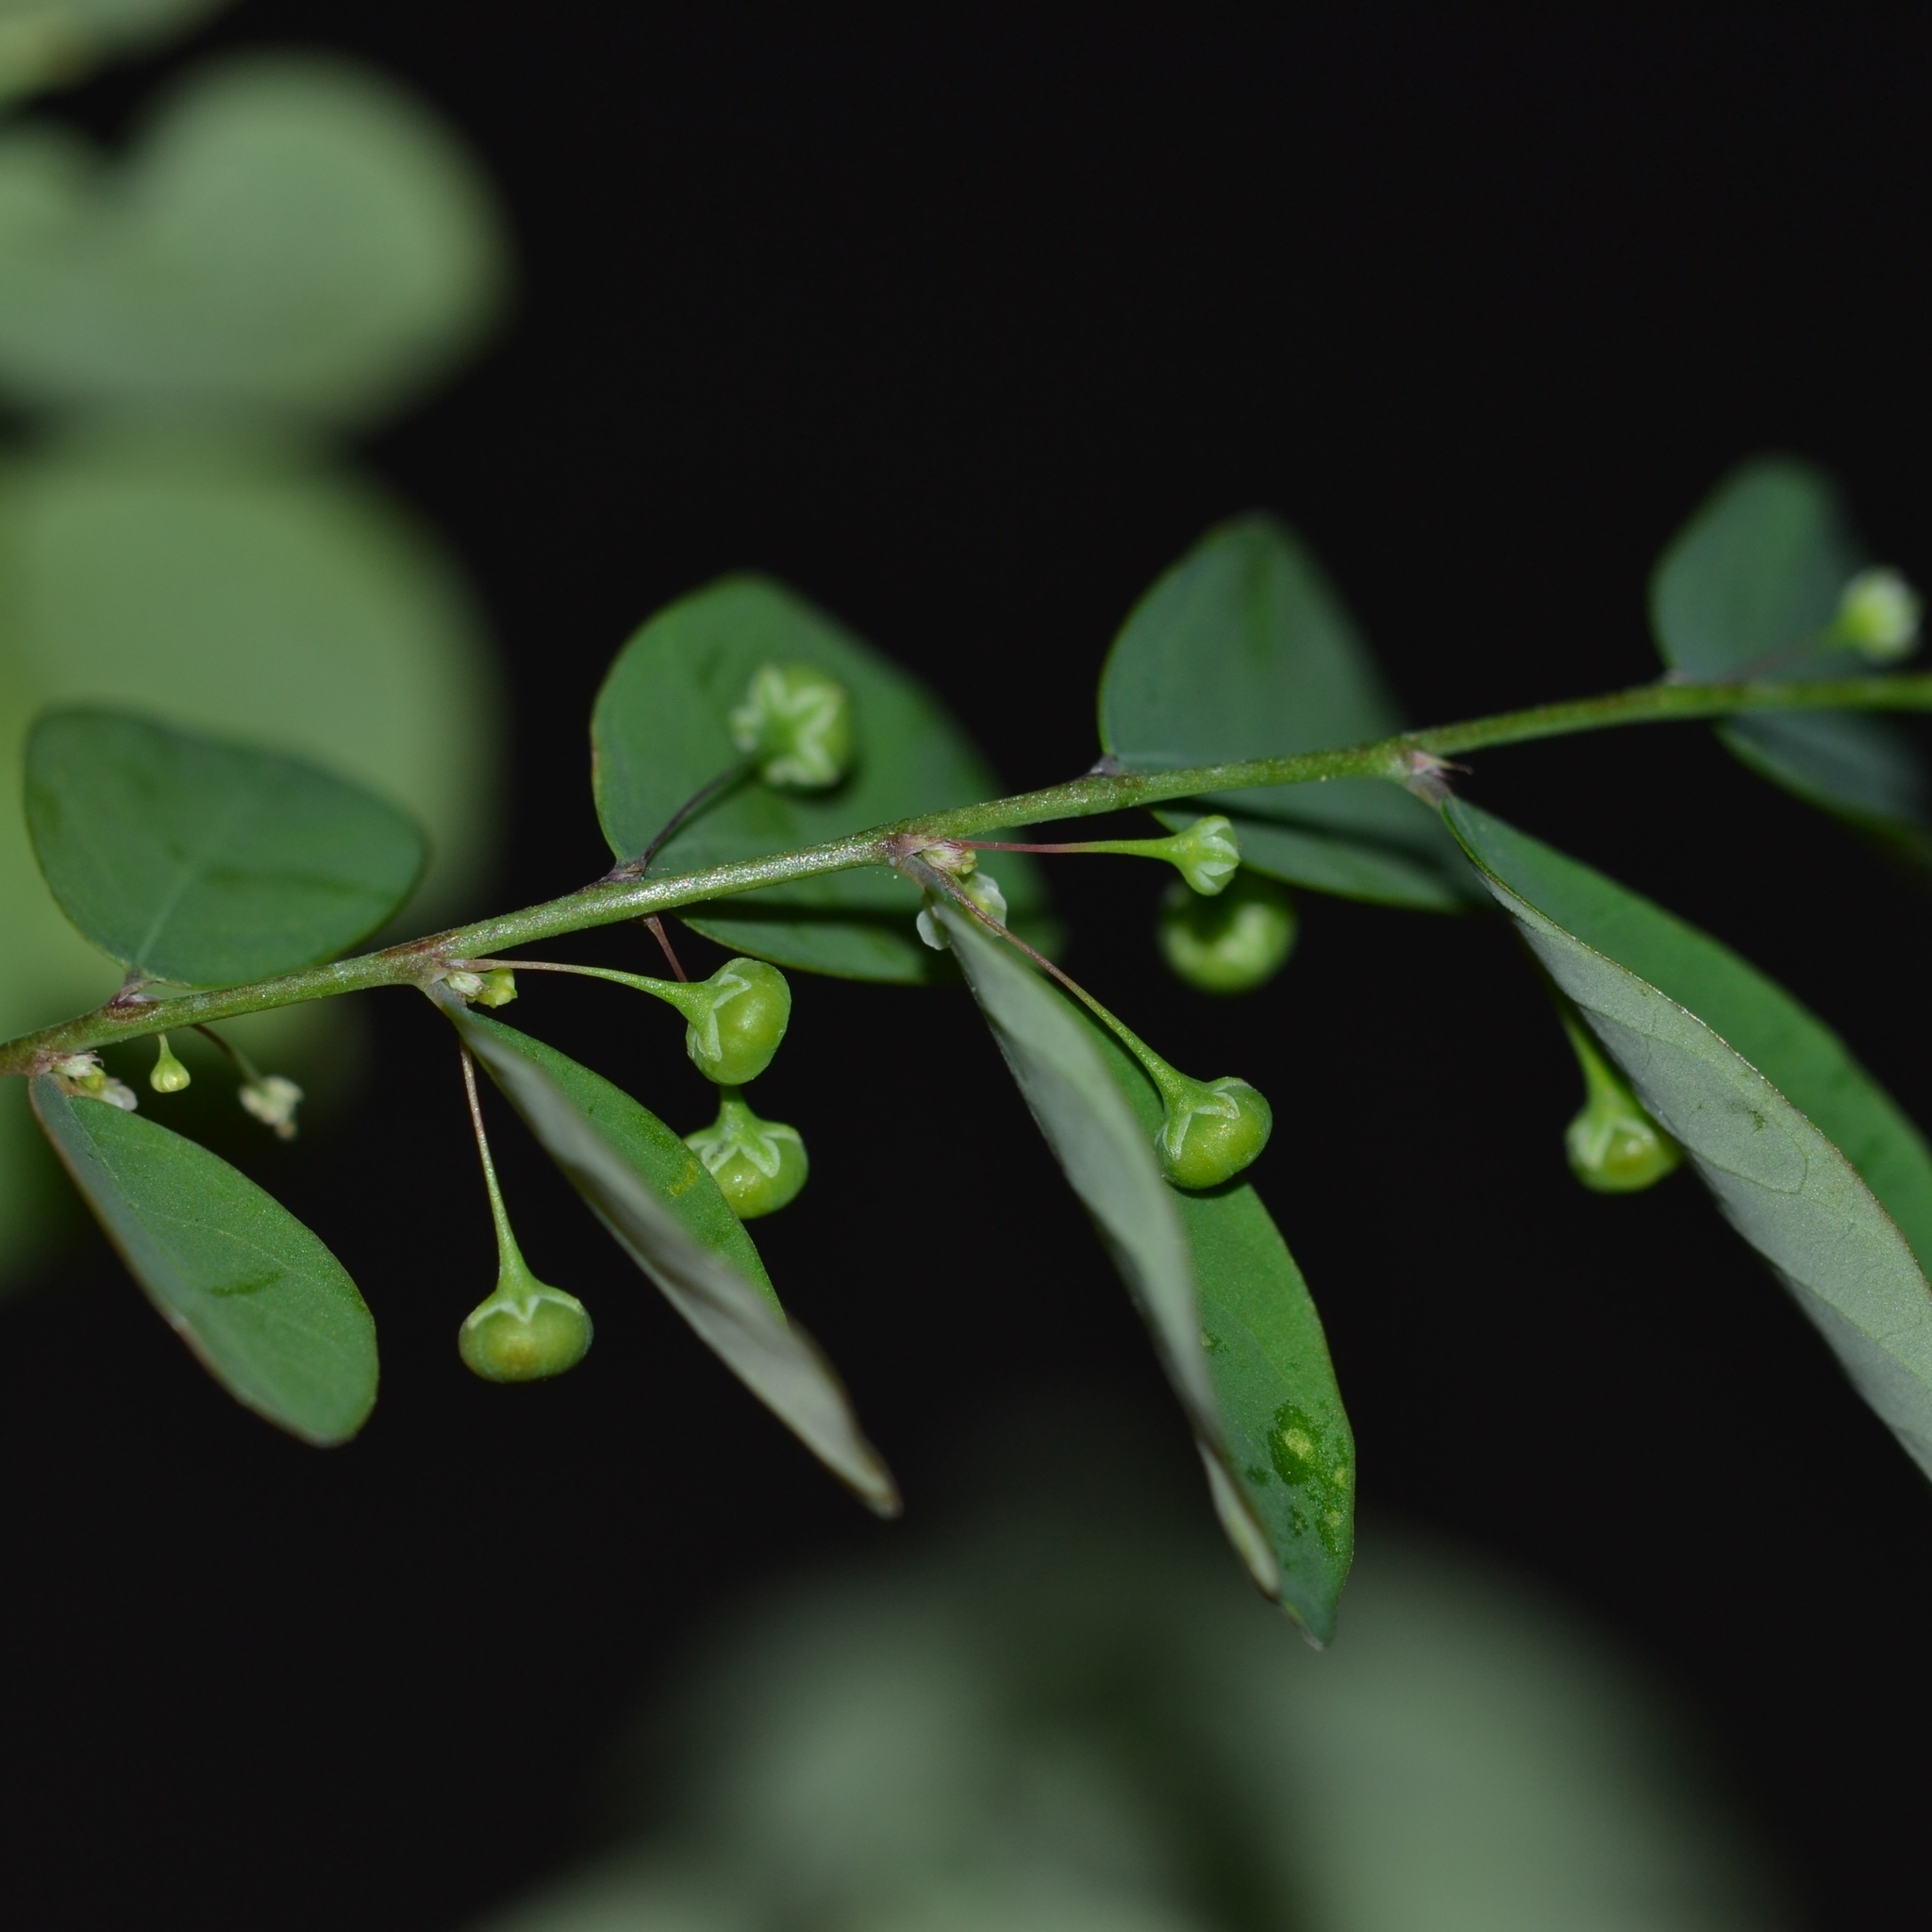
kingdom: Plantae
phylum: Tracheophyta
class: Magnoliopsida
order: Malpighiales
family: Phyllanthaceae
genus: Phyllanthus
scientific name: Phyllanthus tenellus
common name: Mascarene island leaf-flower
